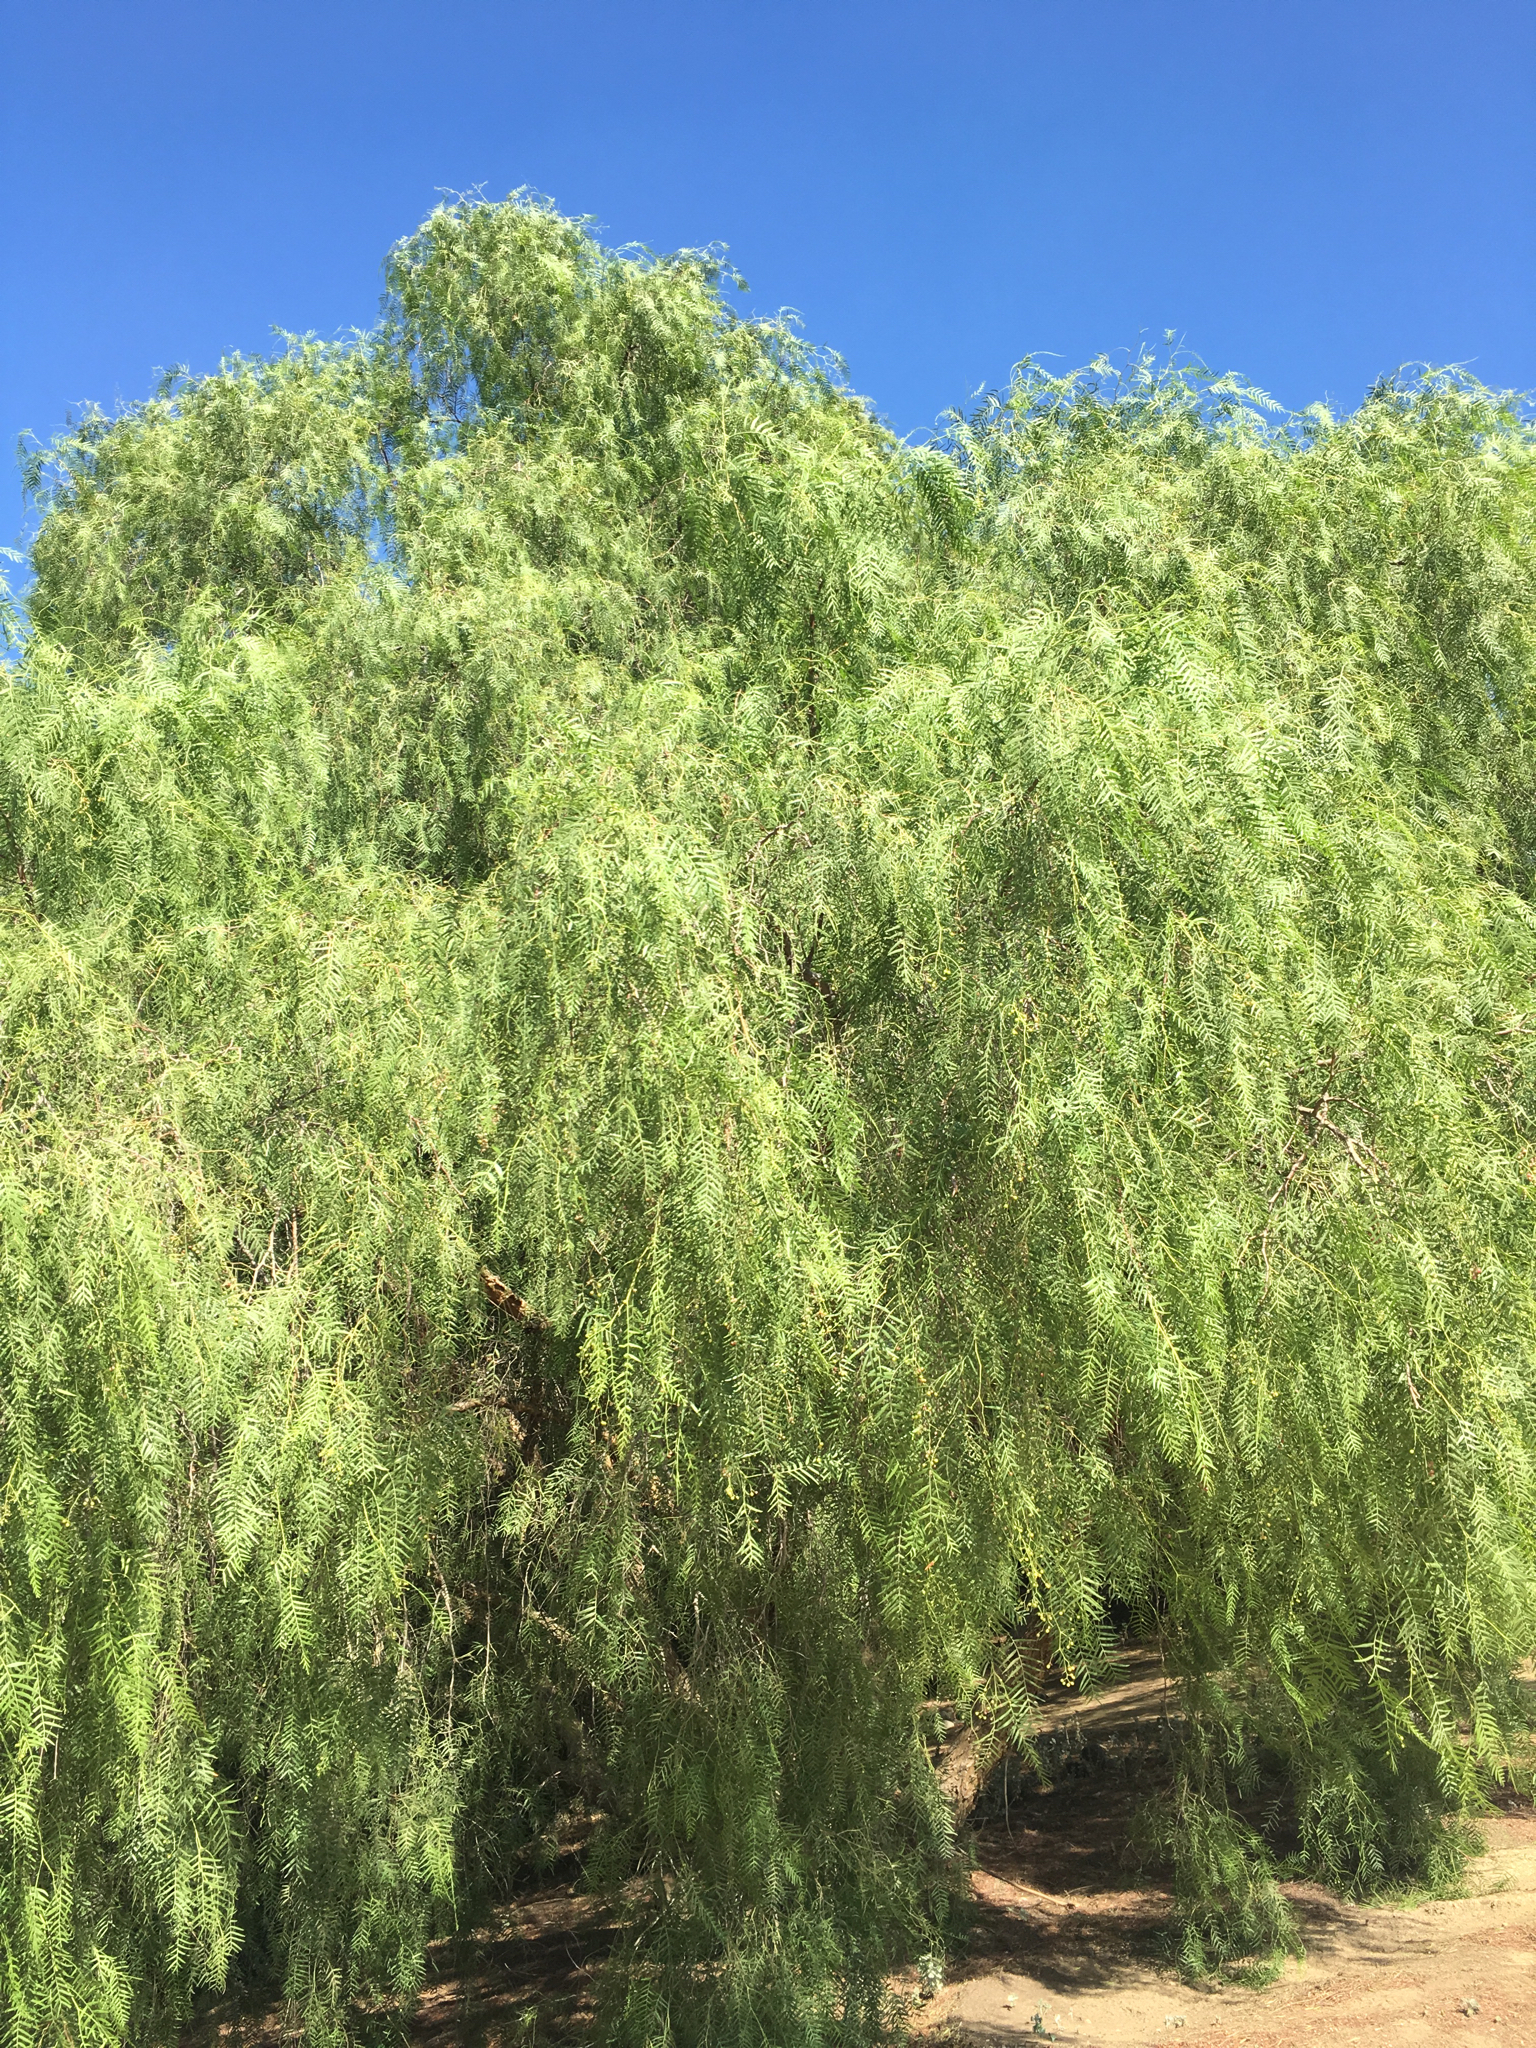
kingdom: Plantae
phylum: Tracheophyta
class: Magnoliopsida
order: Sapindales
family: Anacardiaceae
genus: Schinus
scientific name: Schinus molle
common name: Peruvian peppertree
